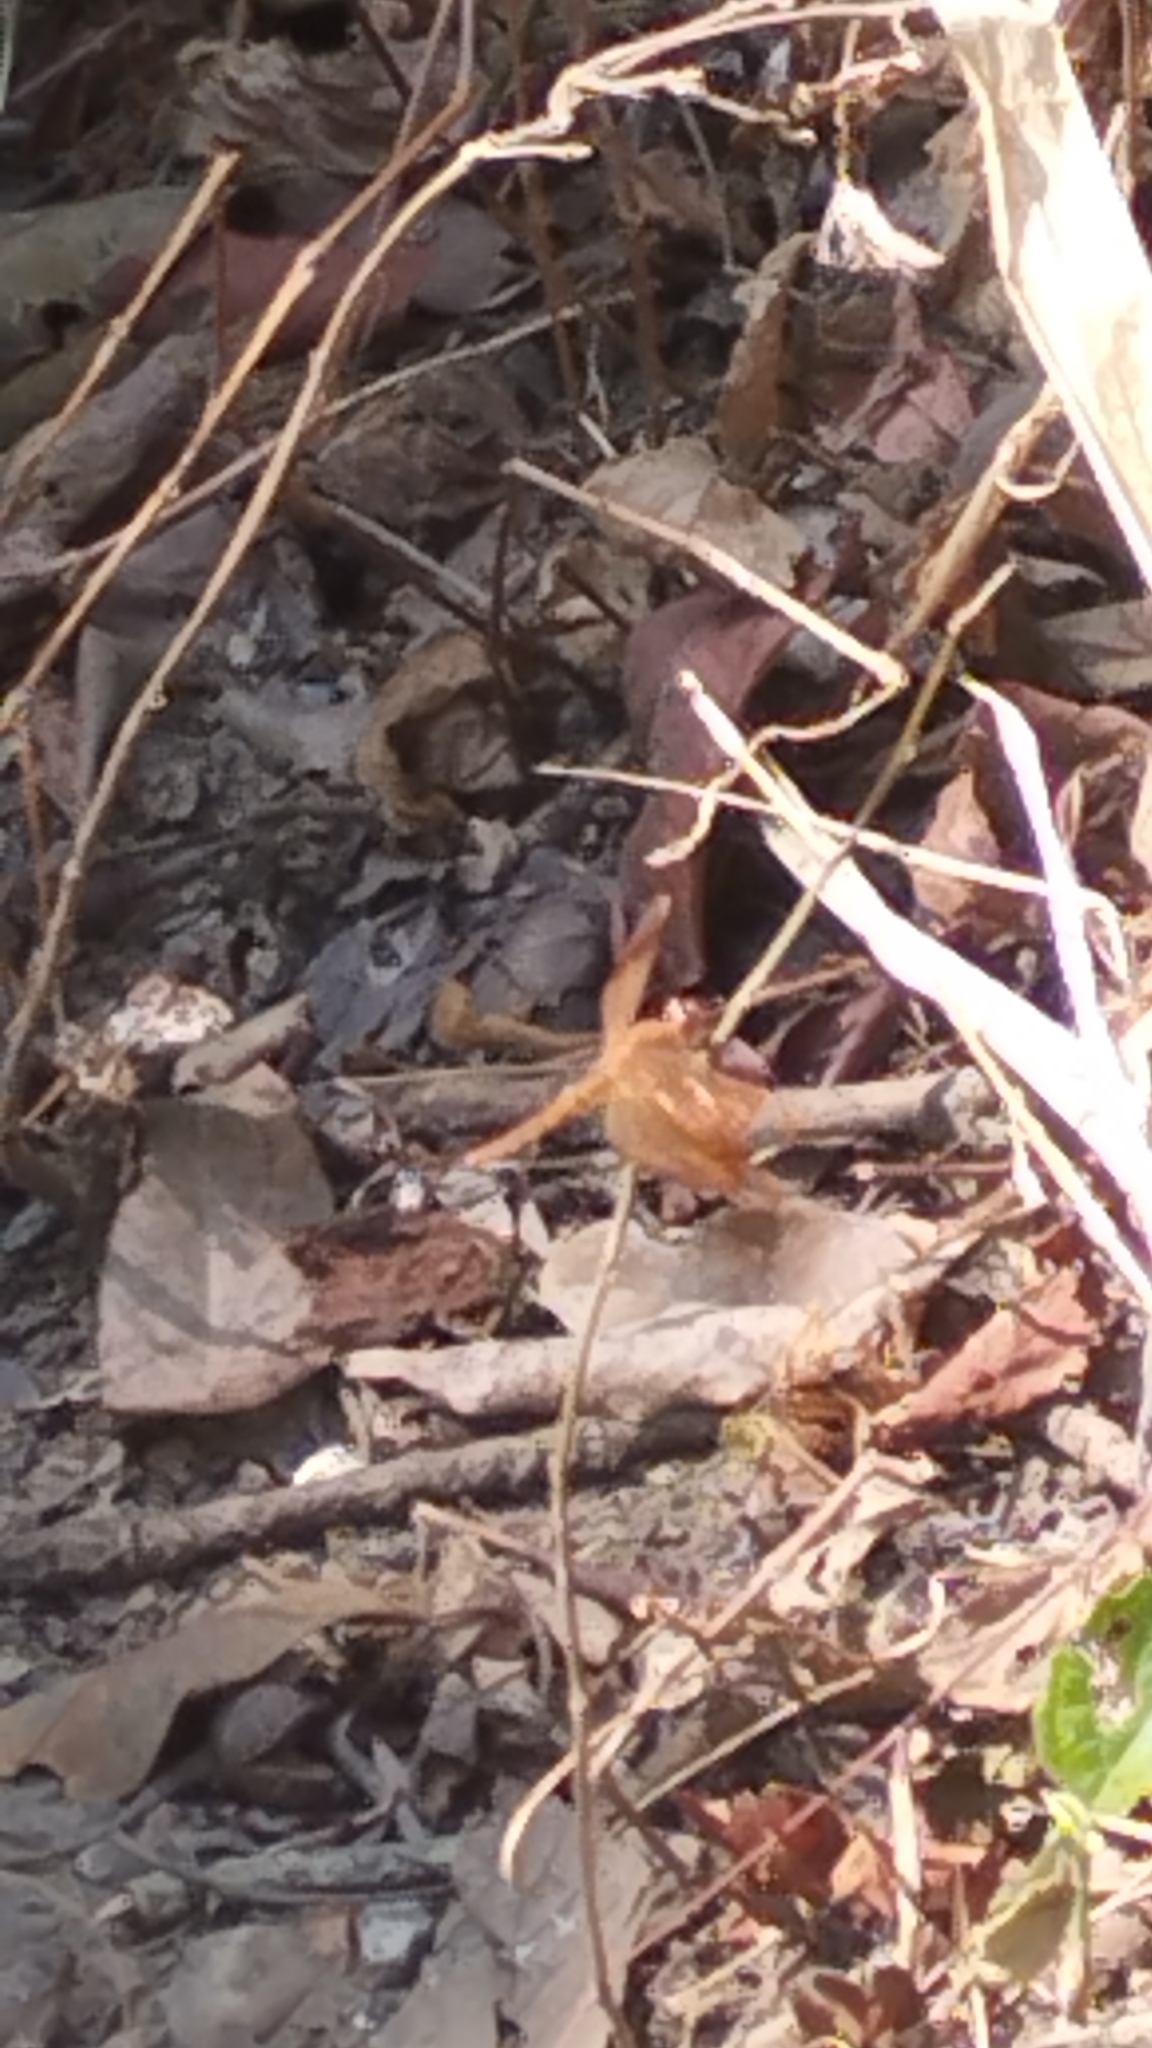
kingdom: Animalia
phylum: Arthropoda
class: Insecta
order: Odonata
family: Libellulidae
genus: Neurothemis
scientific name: Neurothemis fulvia
